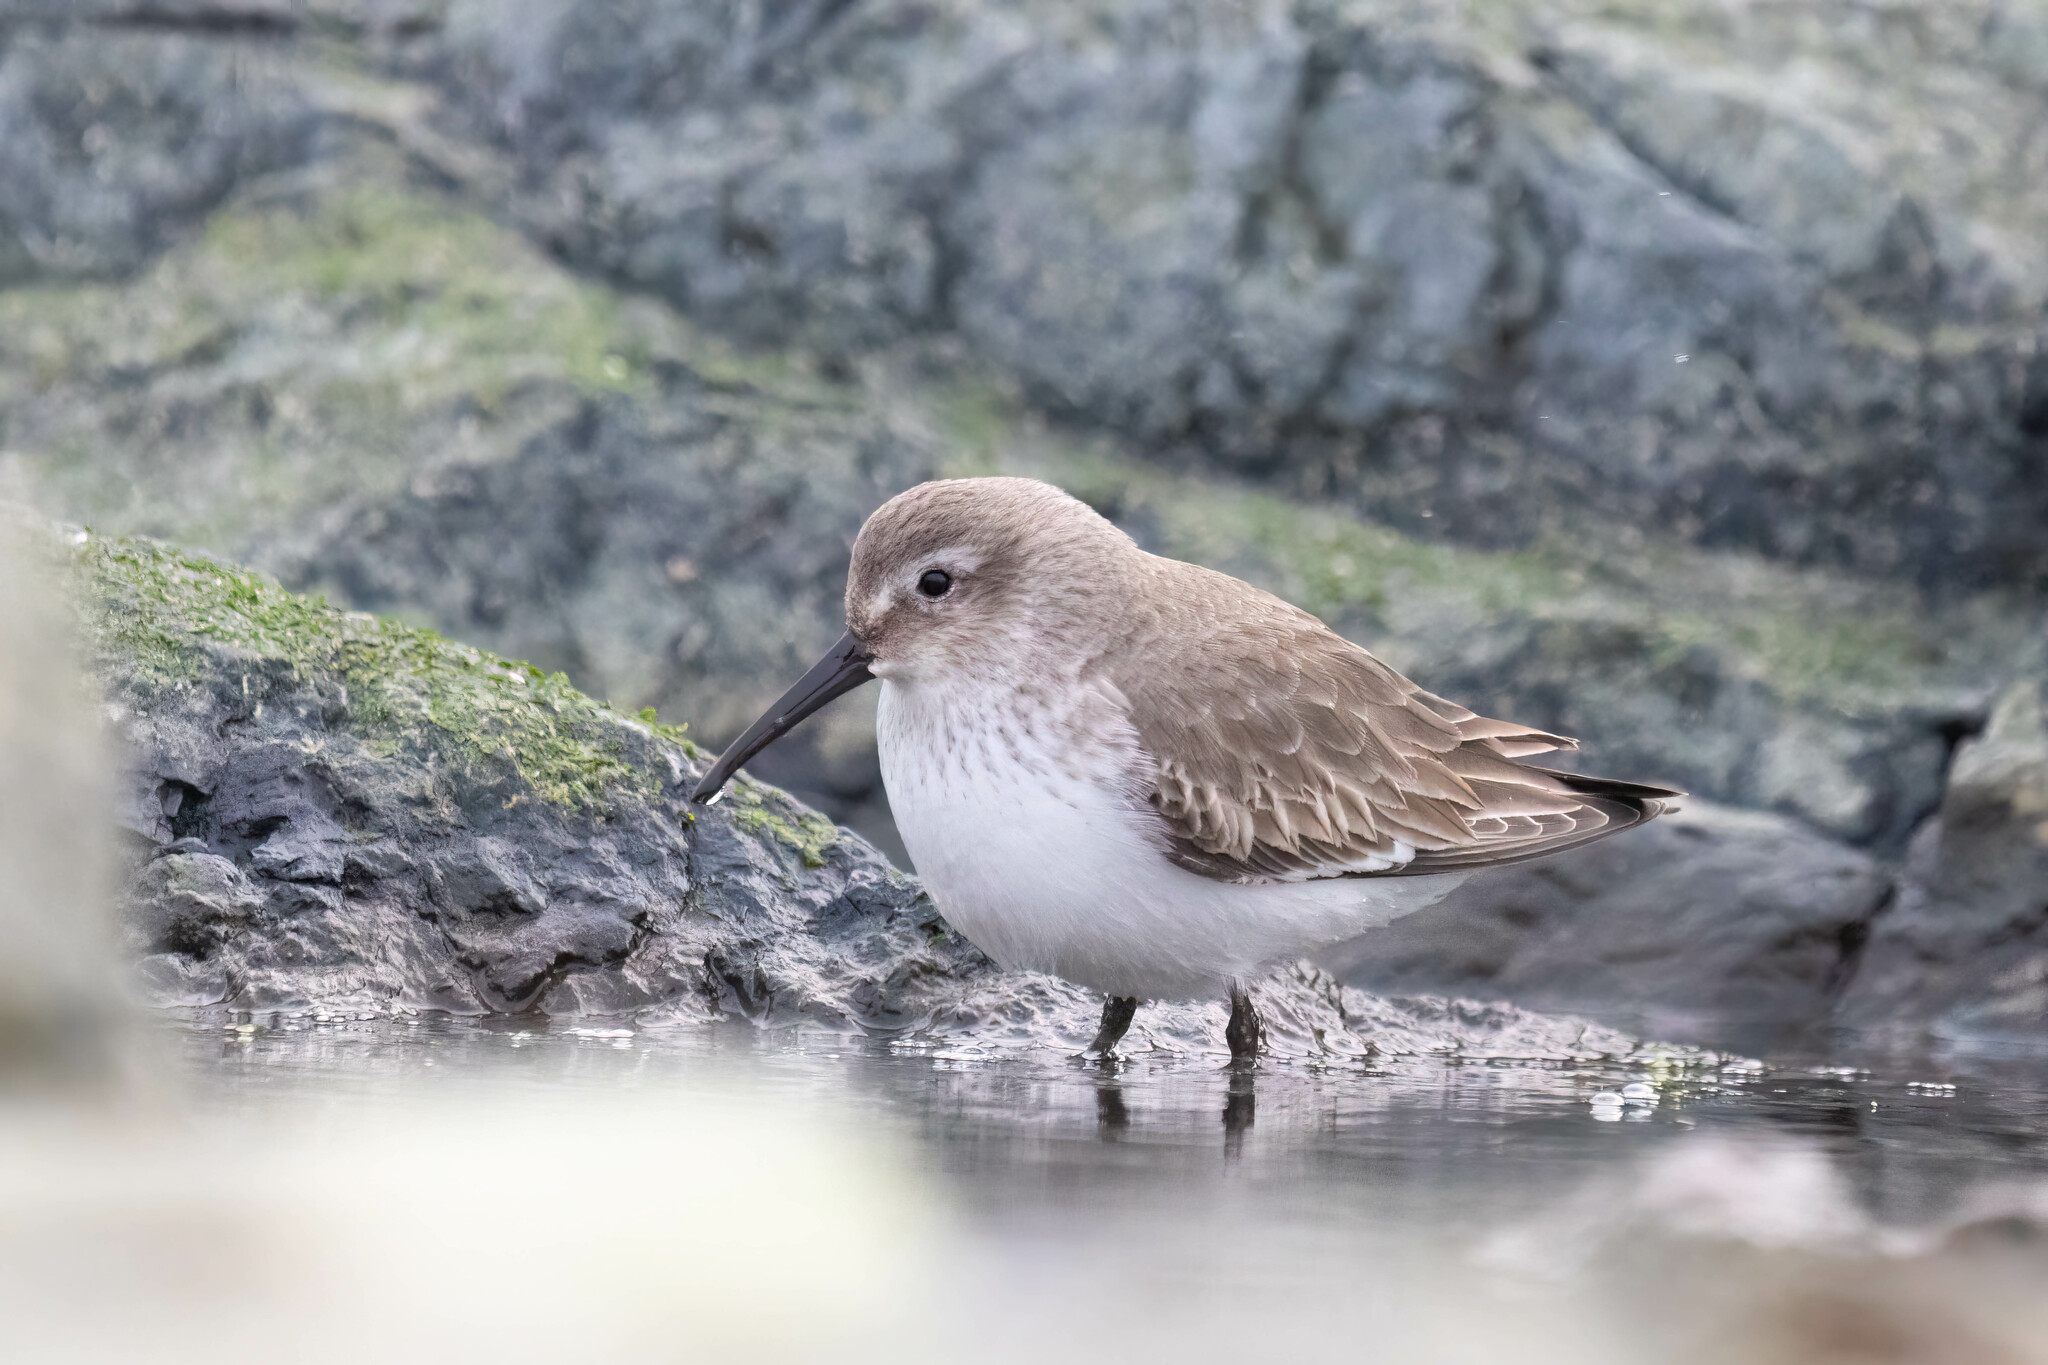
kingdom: Animalia
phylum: Chordata
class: Aves
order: Charadriiformes
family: Scolopacidae
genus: Calidris
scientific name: Calidris alpina
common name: Dunlin
